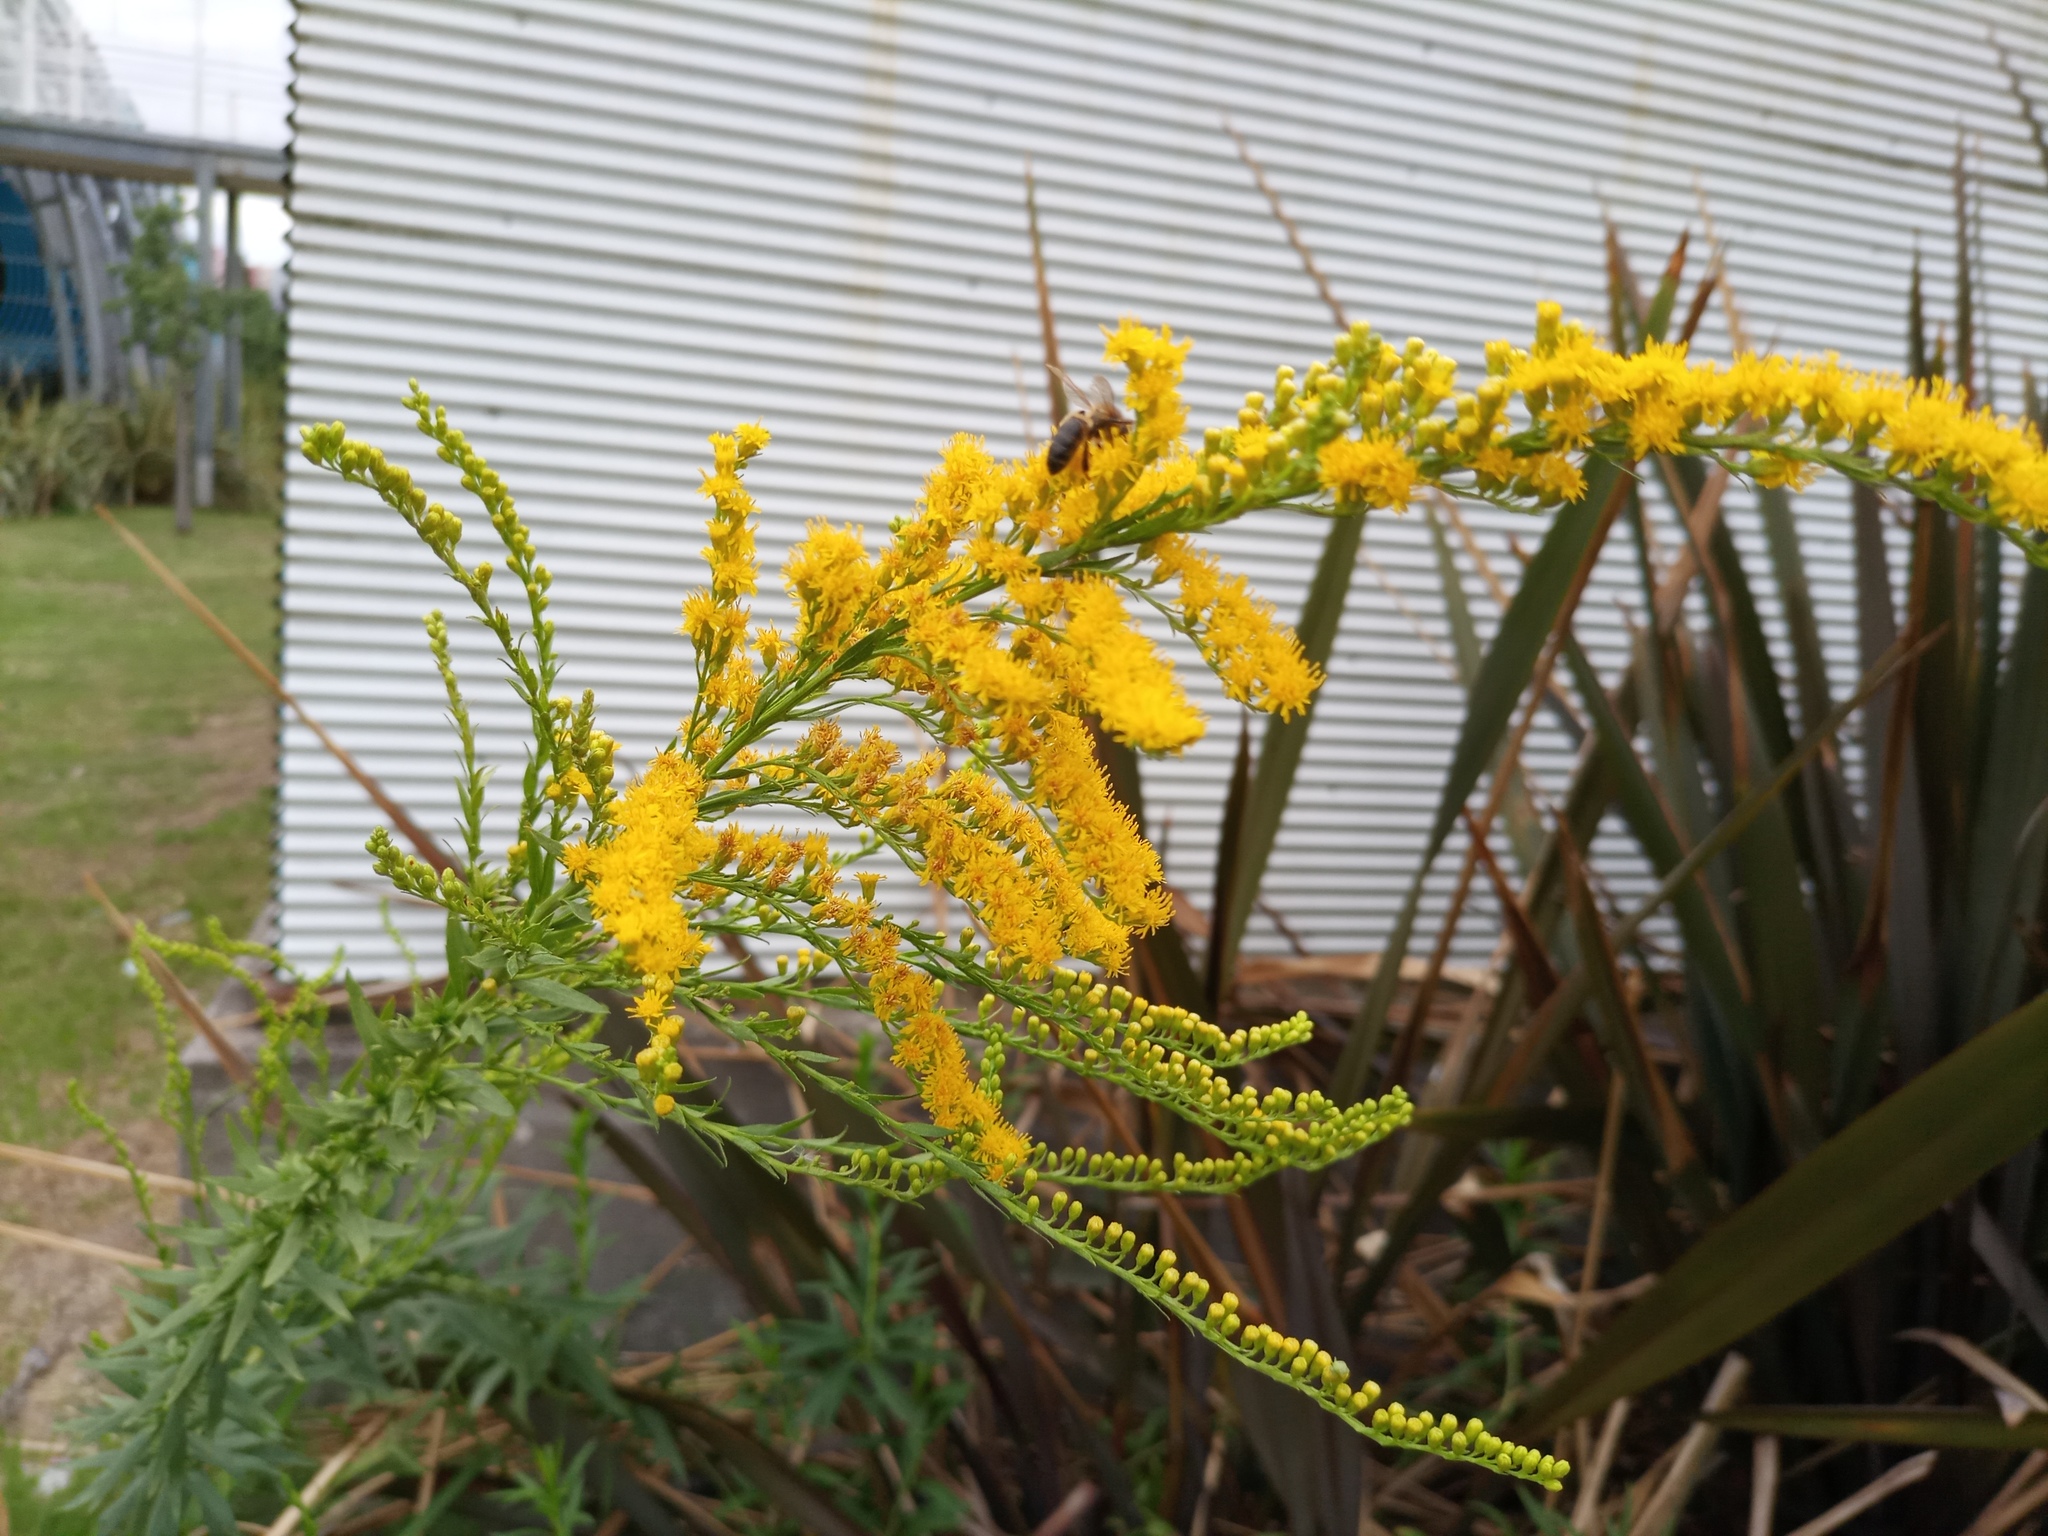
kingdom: Plantae
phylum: Tracheophyta
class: Magnoliopsida
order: Asterales
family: Asteraceae
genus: Solidago
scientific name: Solidago chilensis
